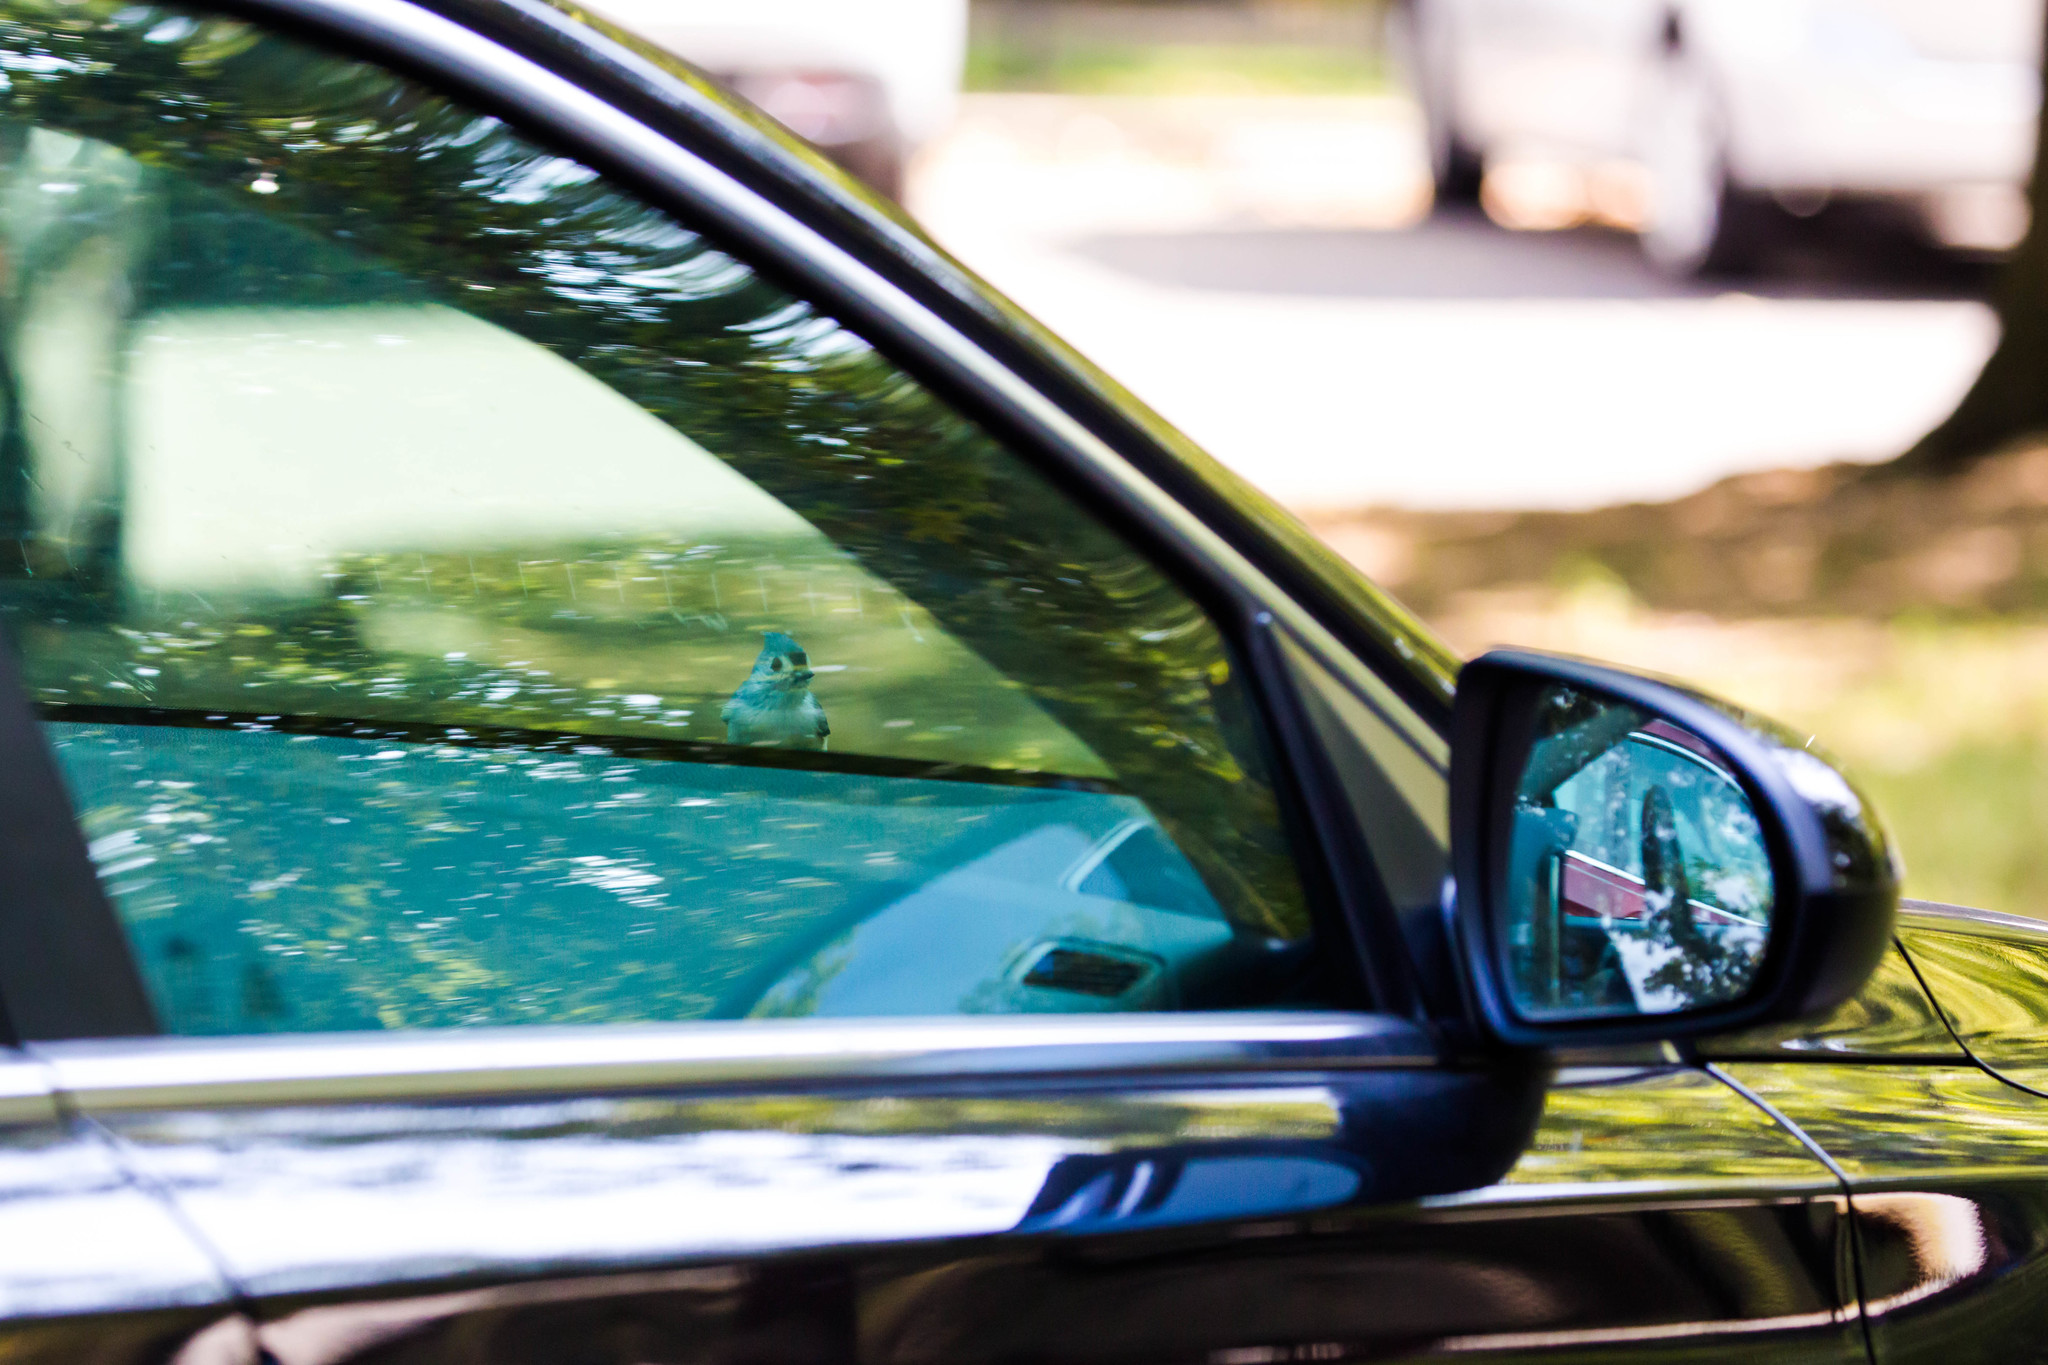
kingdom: Animalia
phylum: Chordata
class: Aves
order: Passeriformes
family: Paridae
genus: Baeolophus
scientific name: Baeolophus bicolor
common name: Tufted titmouse
